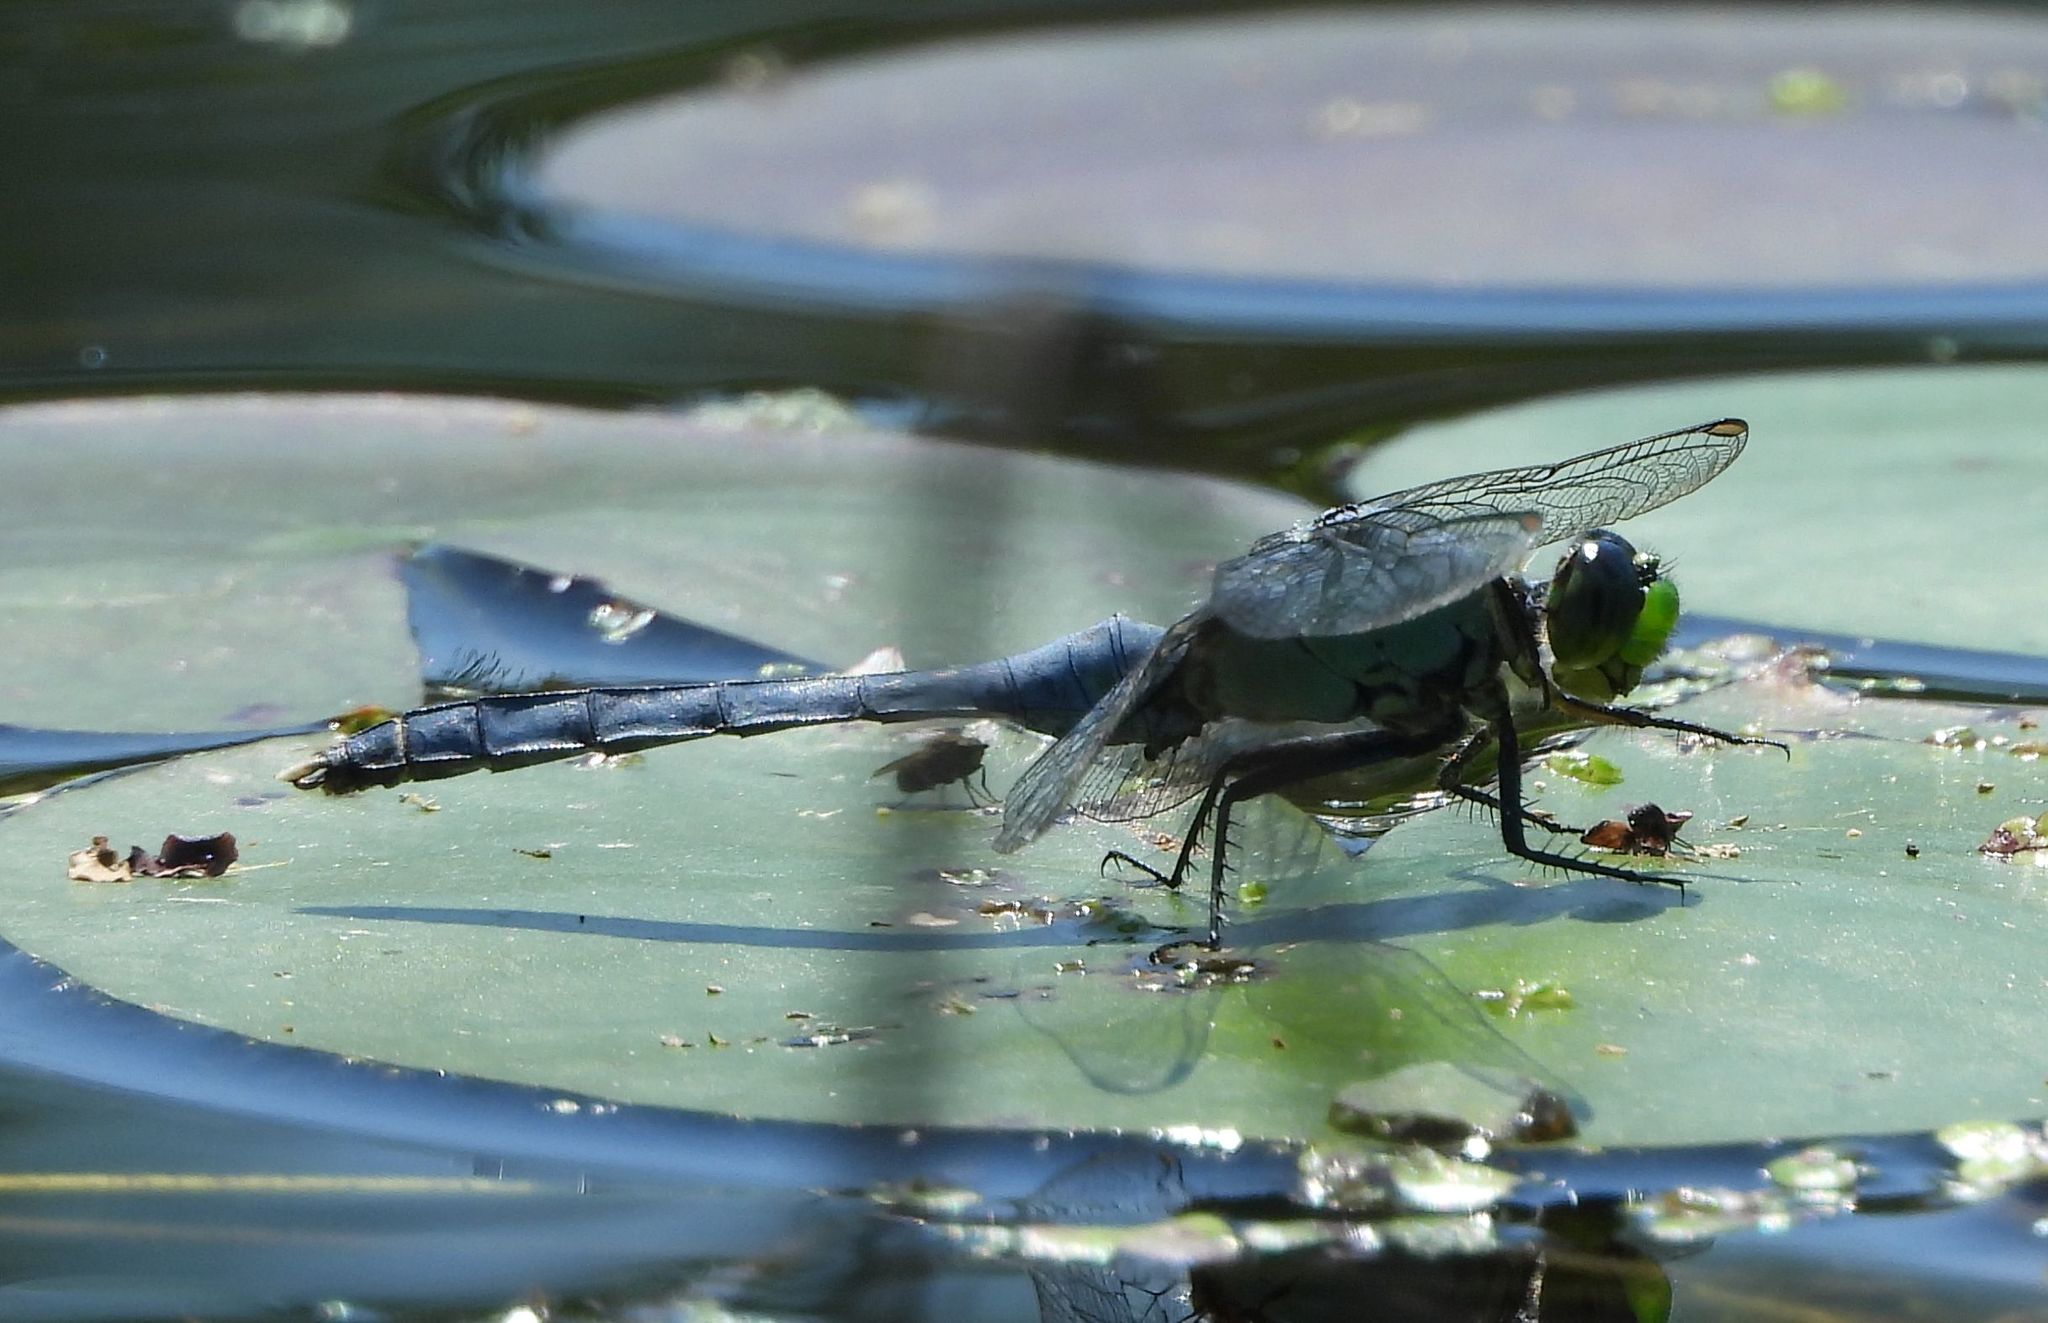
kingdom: Animalia
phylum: Arthropoda
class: Insecta
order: Odonata
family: Libellulidae
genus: Erythemis
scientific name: Erythemis simplicicollis
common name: Eastern pondhawk
